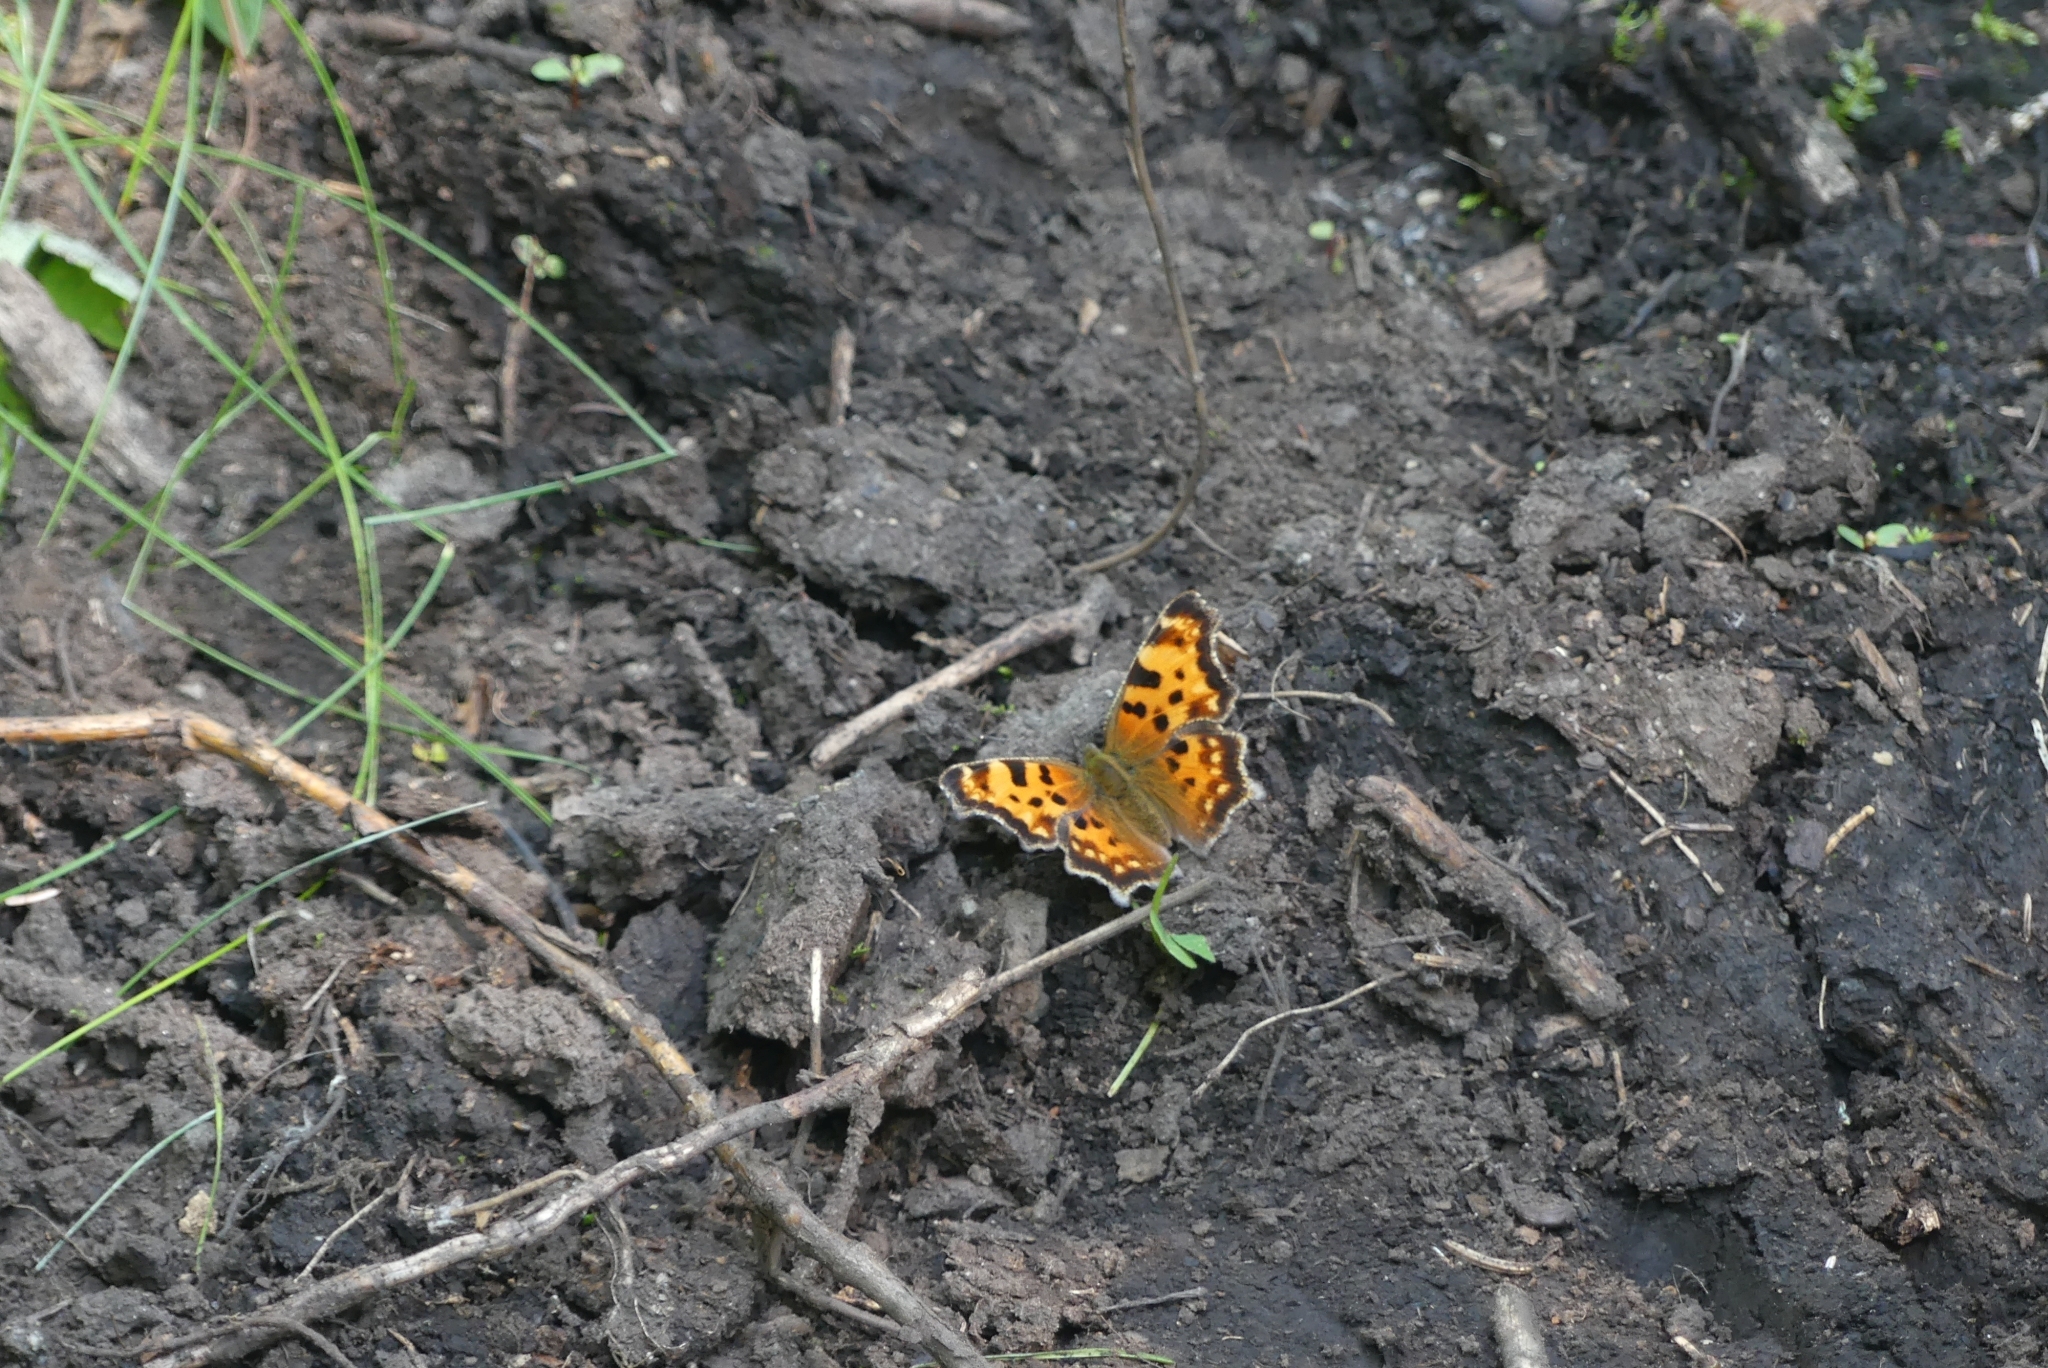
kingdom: Animalia
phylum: Arthropoda
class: Insecta
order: Lepidoptera
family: Nymphalidae
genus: Polygonia
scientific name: Polygonia faunus
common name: Green comma
